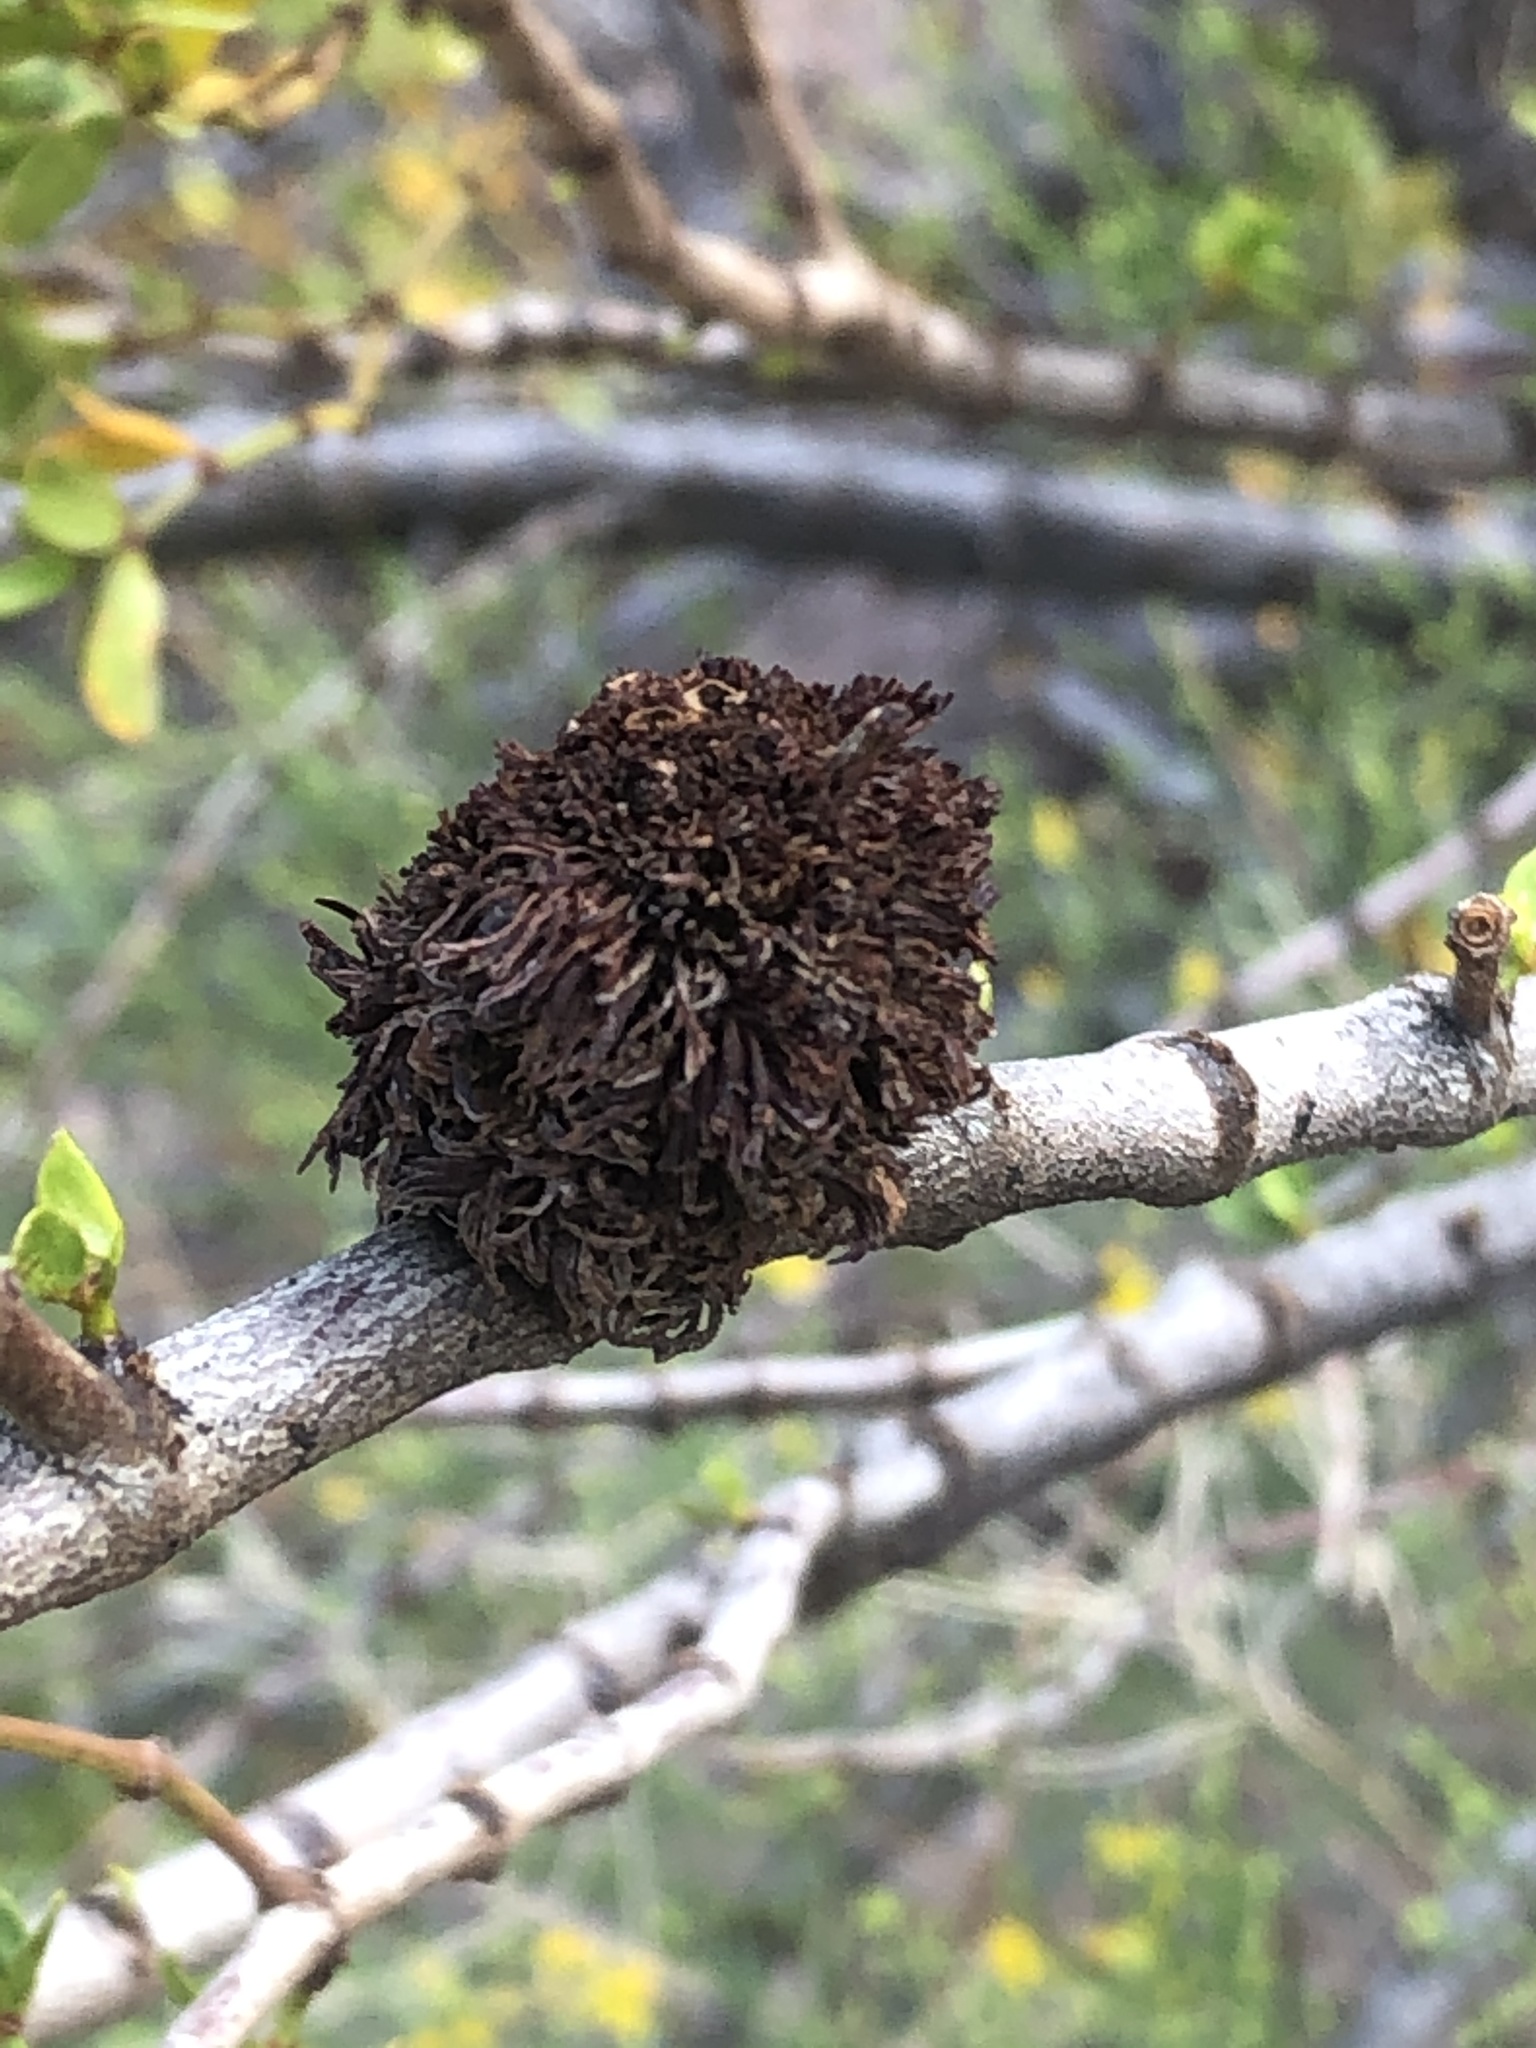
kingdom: Animalia
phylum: Arthropoda
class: Insecta
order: Diptera
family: Cecidomyiidae
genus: Asphondylia
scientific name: Asphondylia auripila
